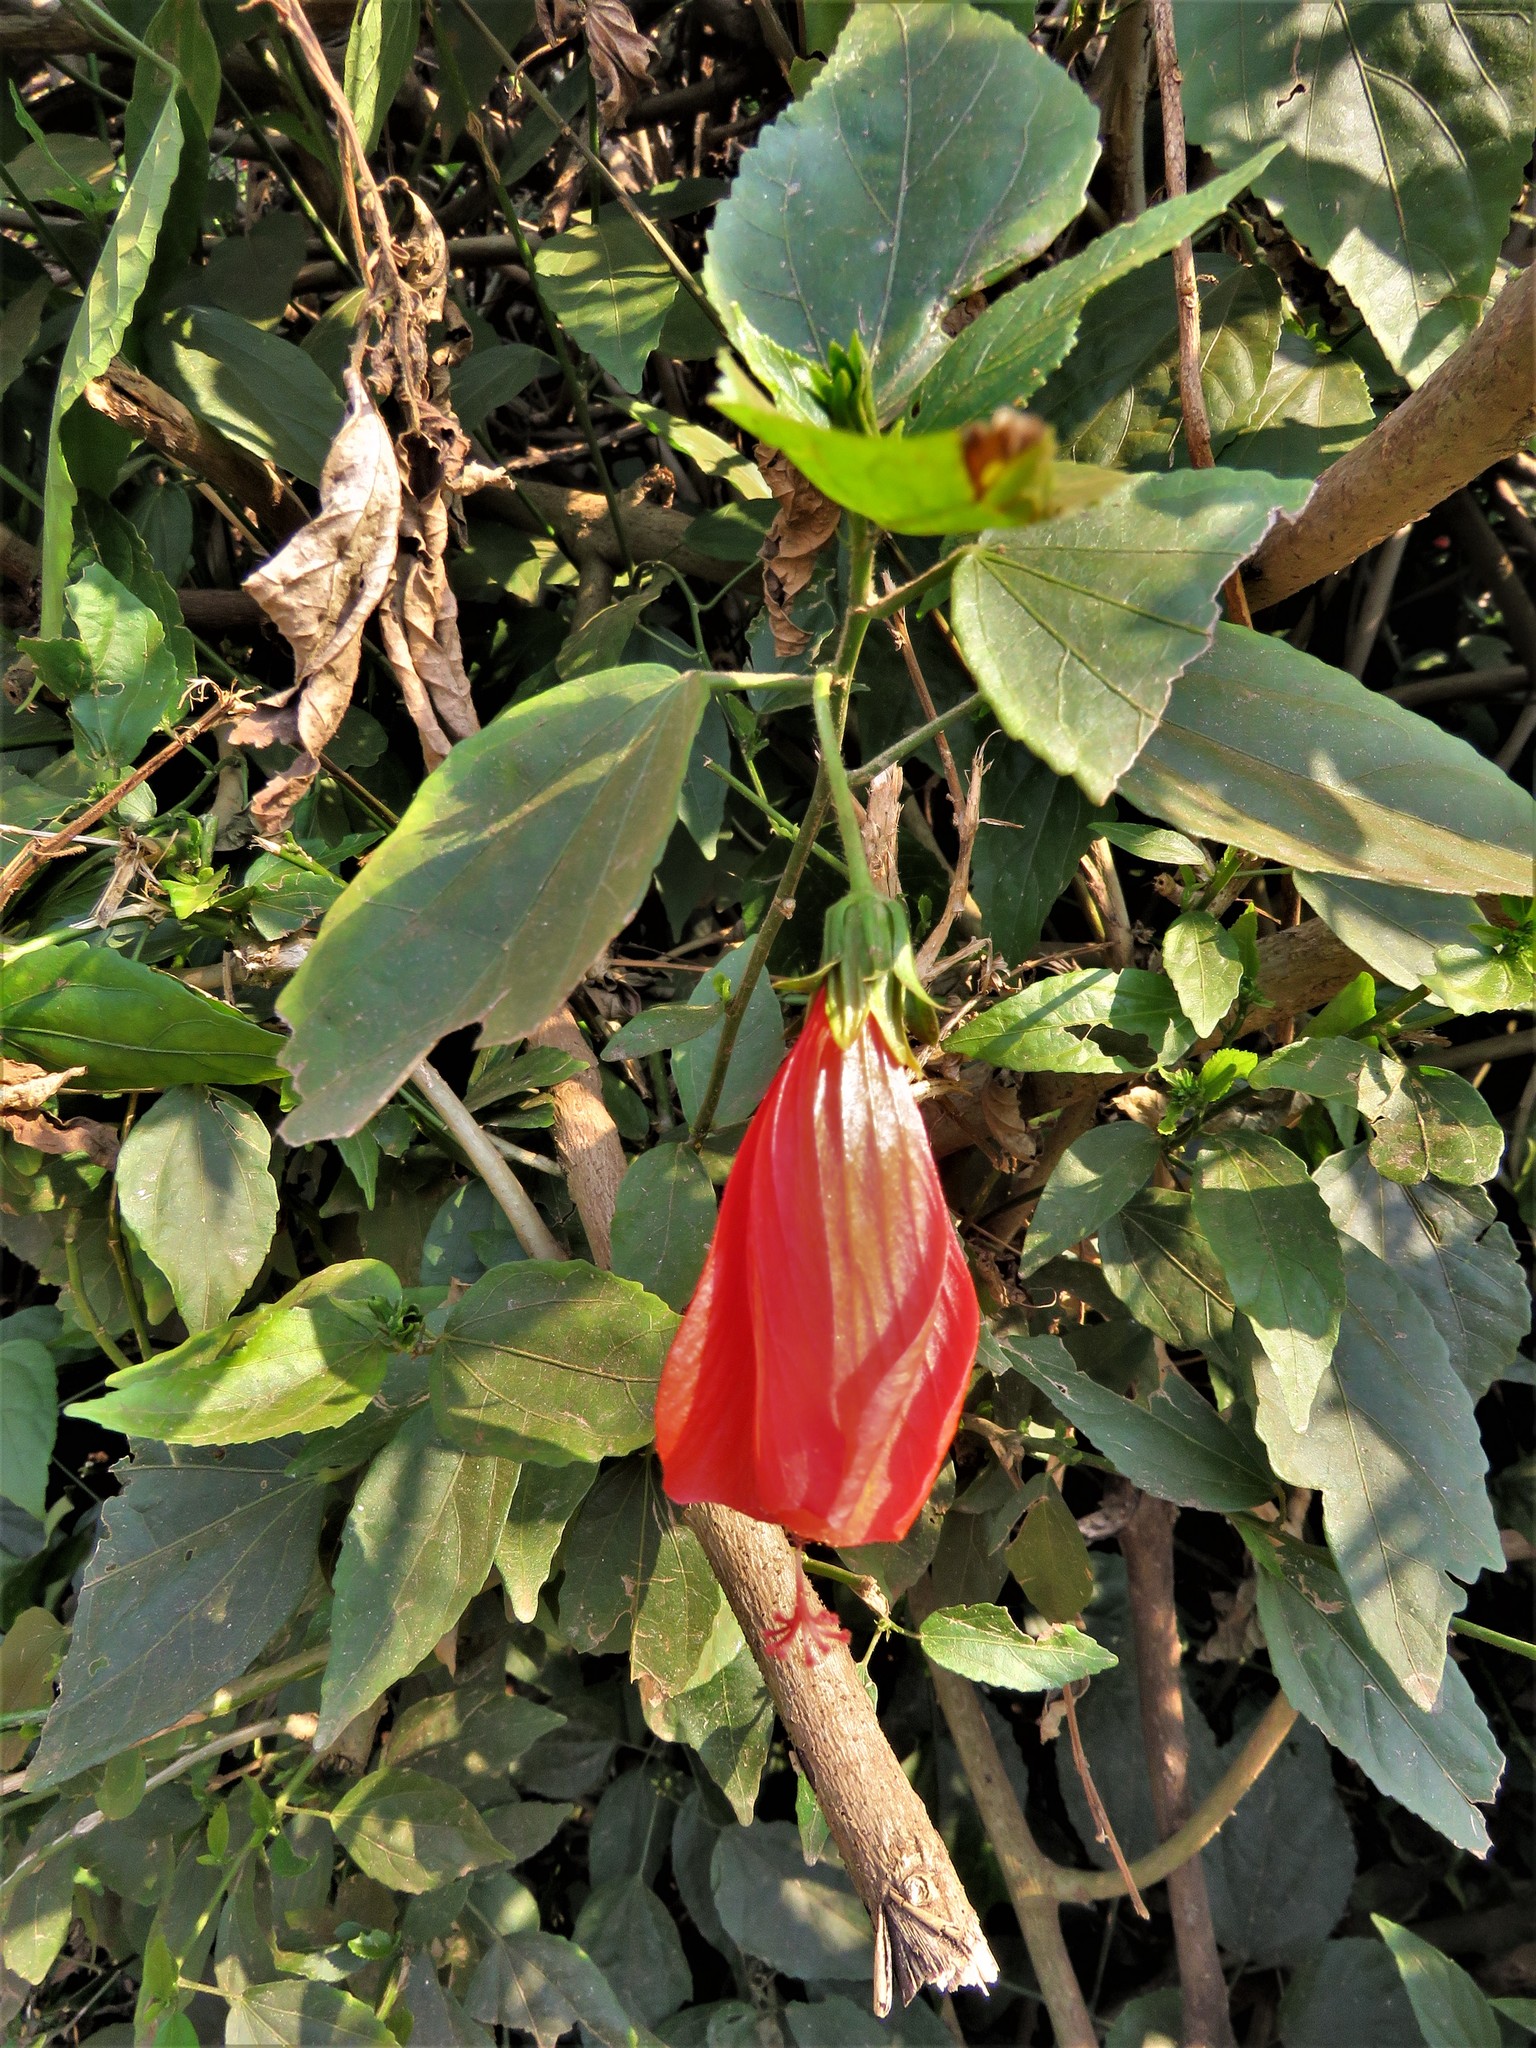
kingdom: Plantae
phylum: Tracheophyta
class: Magnoliopsida
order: Malvales
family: Malvaceae
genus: Malvaviscus
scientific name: Malvaviscus penduliflorus
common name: Mazapan
